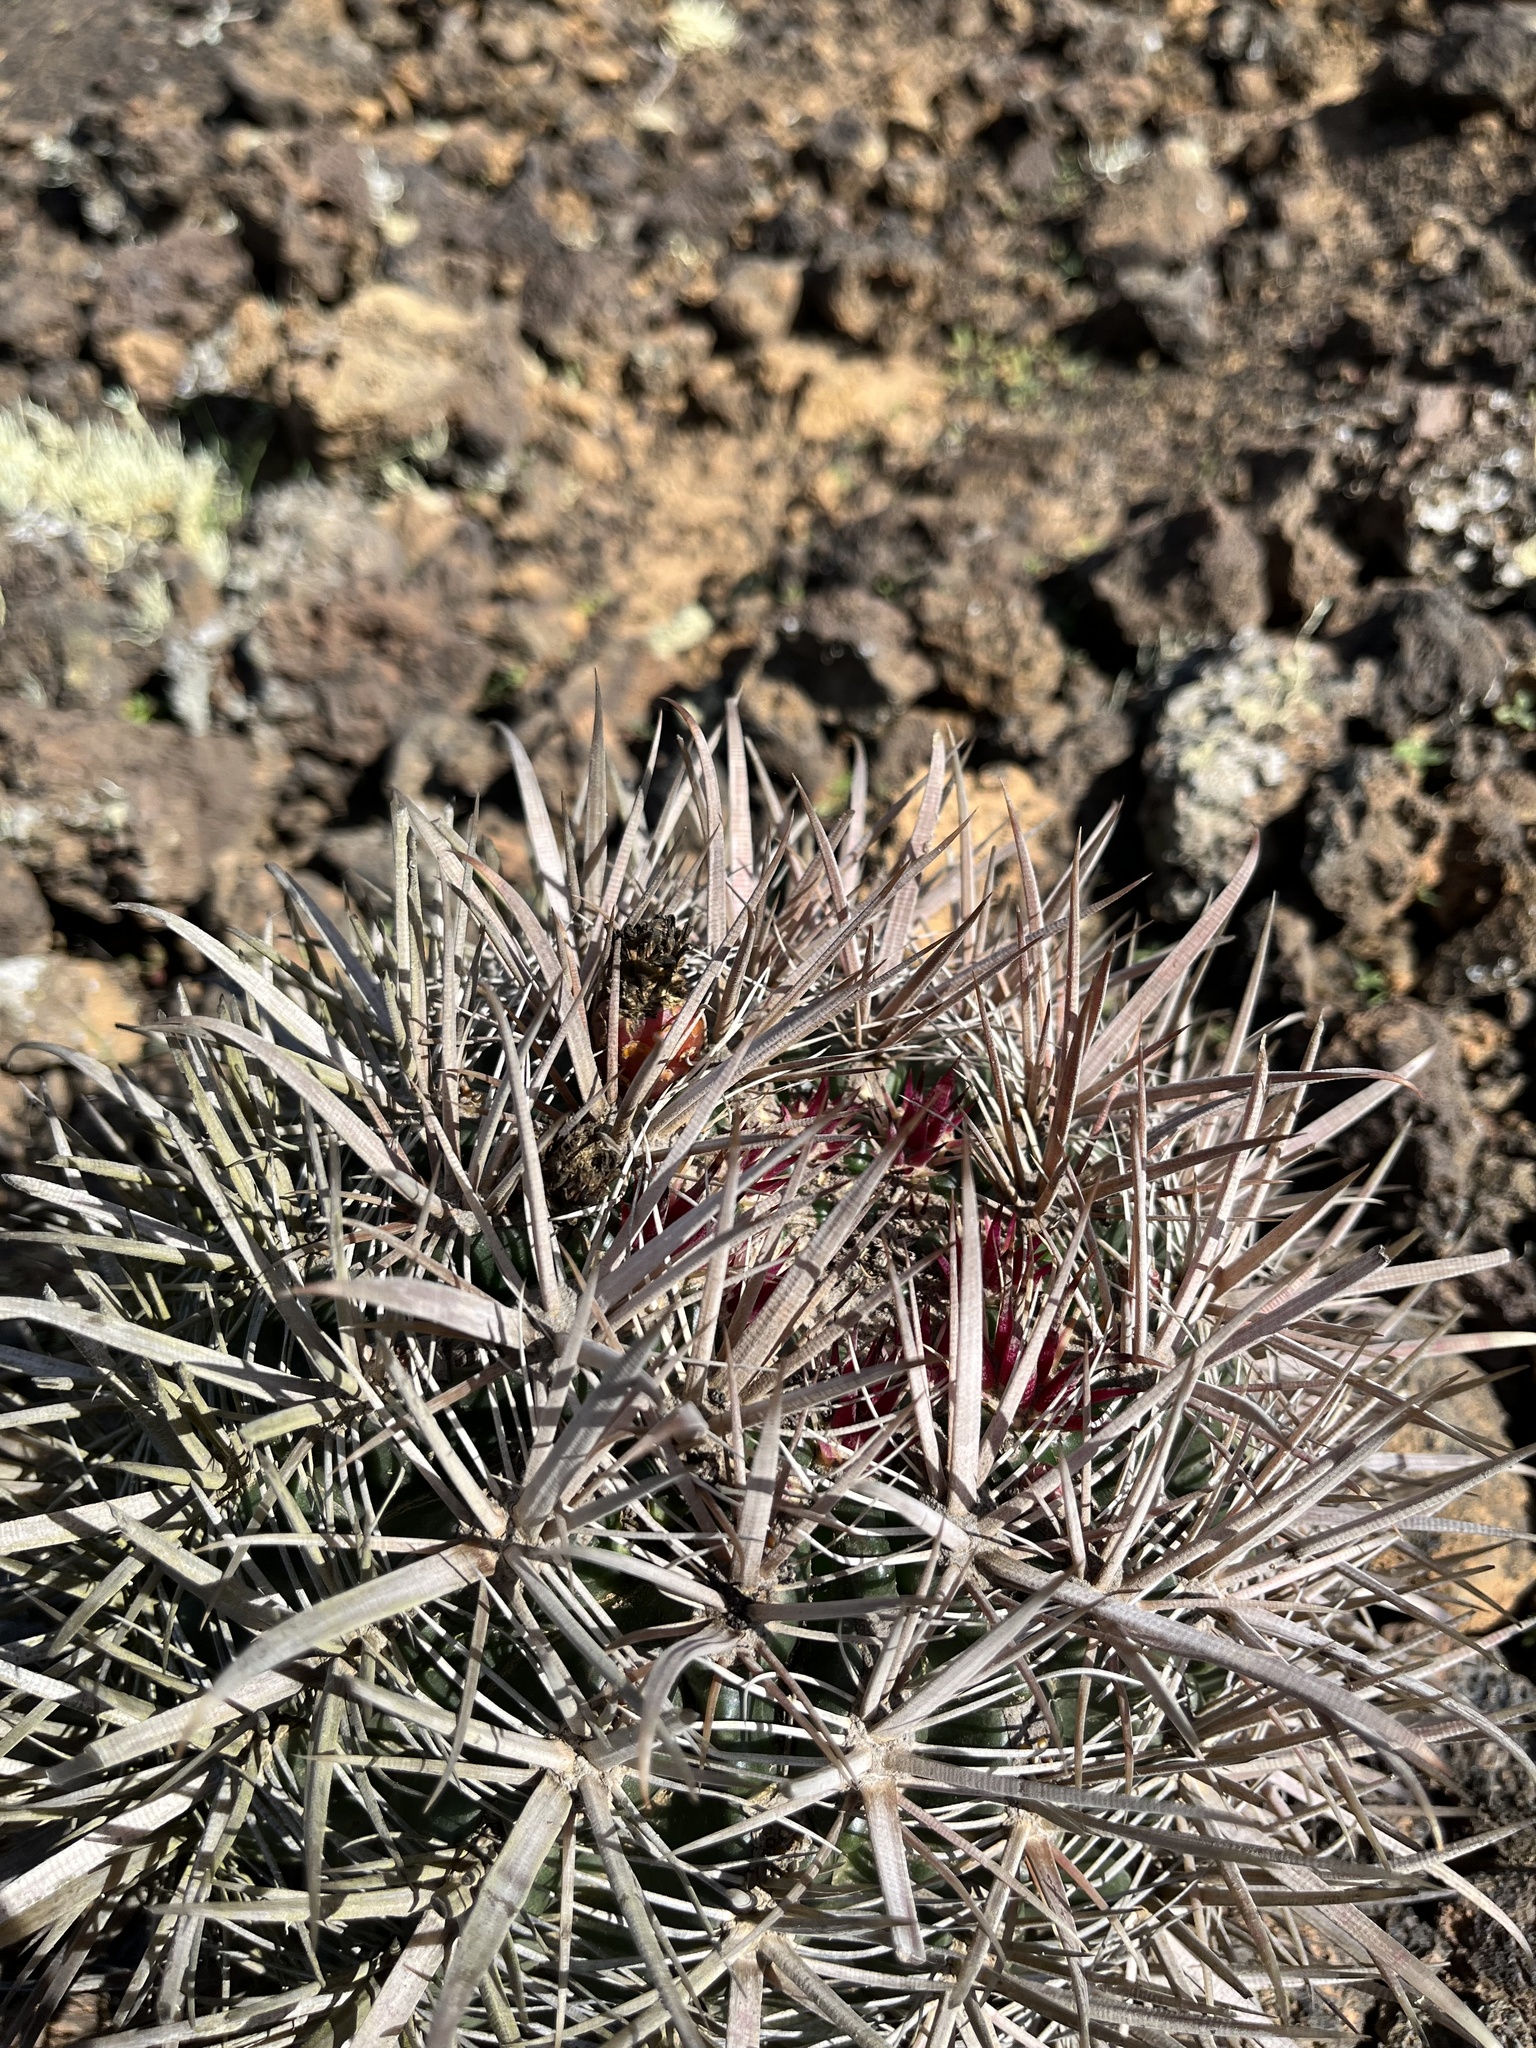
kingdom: Plantae
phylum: Tracheophyta
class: Magnoliopsida
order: Caryophyllales
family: Cactaceae
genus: Ferocactus
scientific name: Ferocactus fordii
